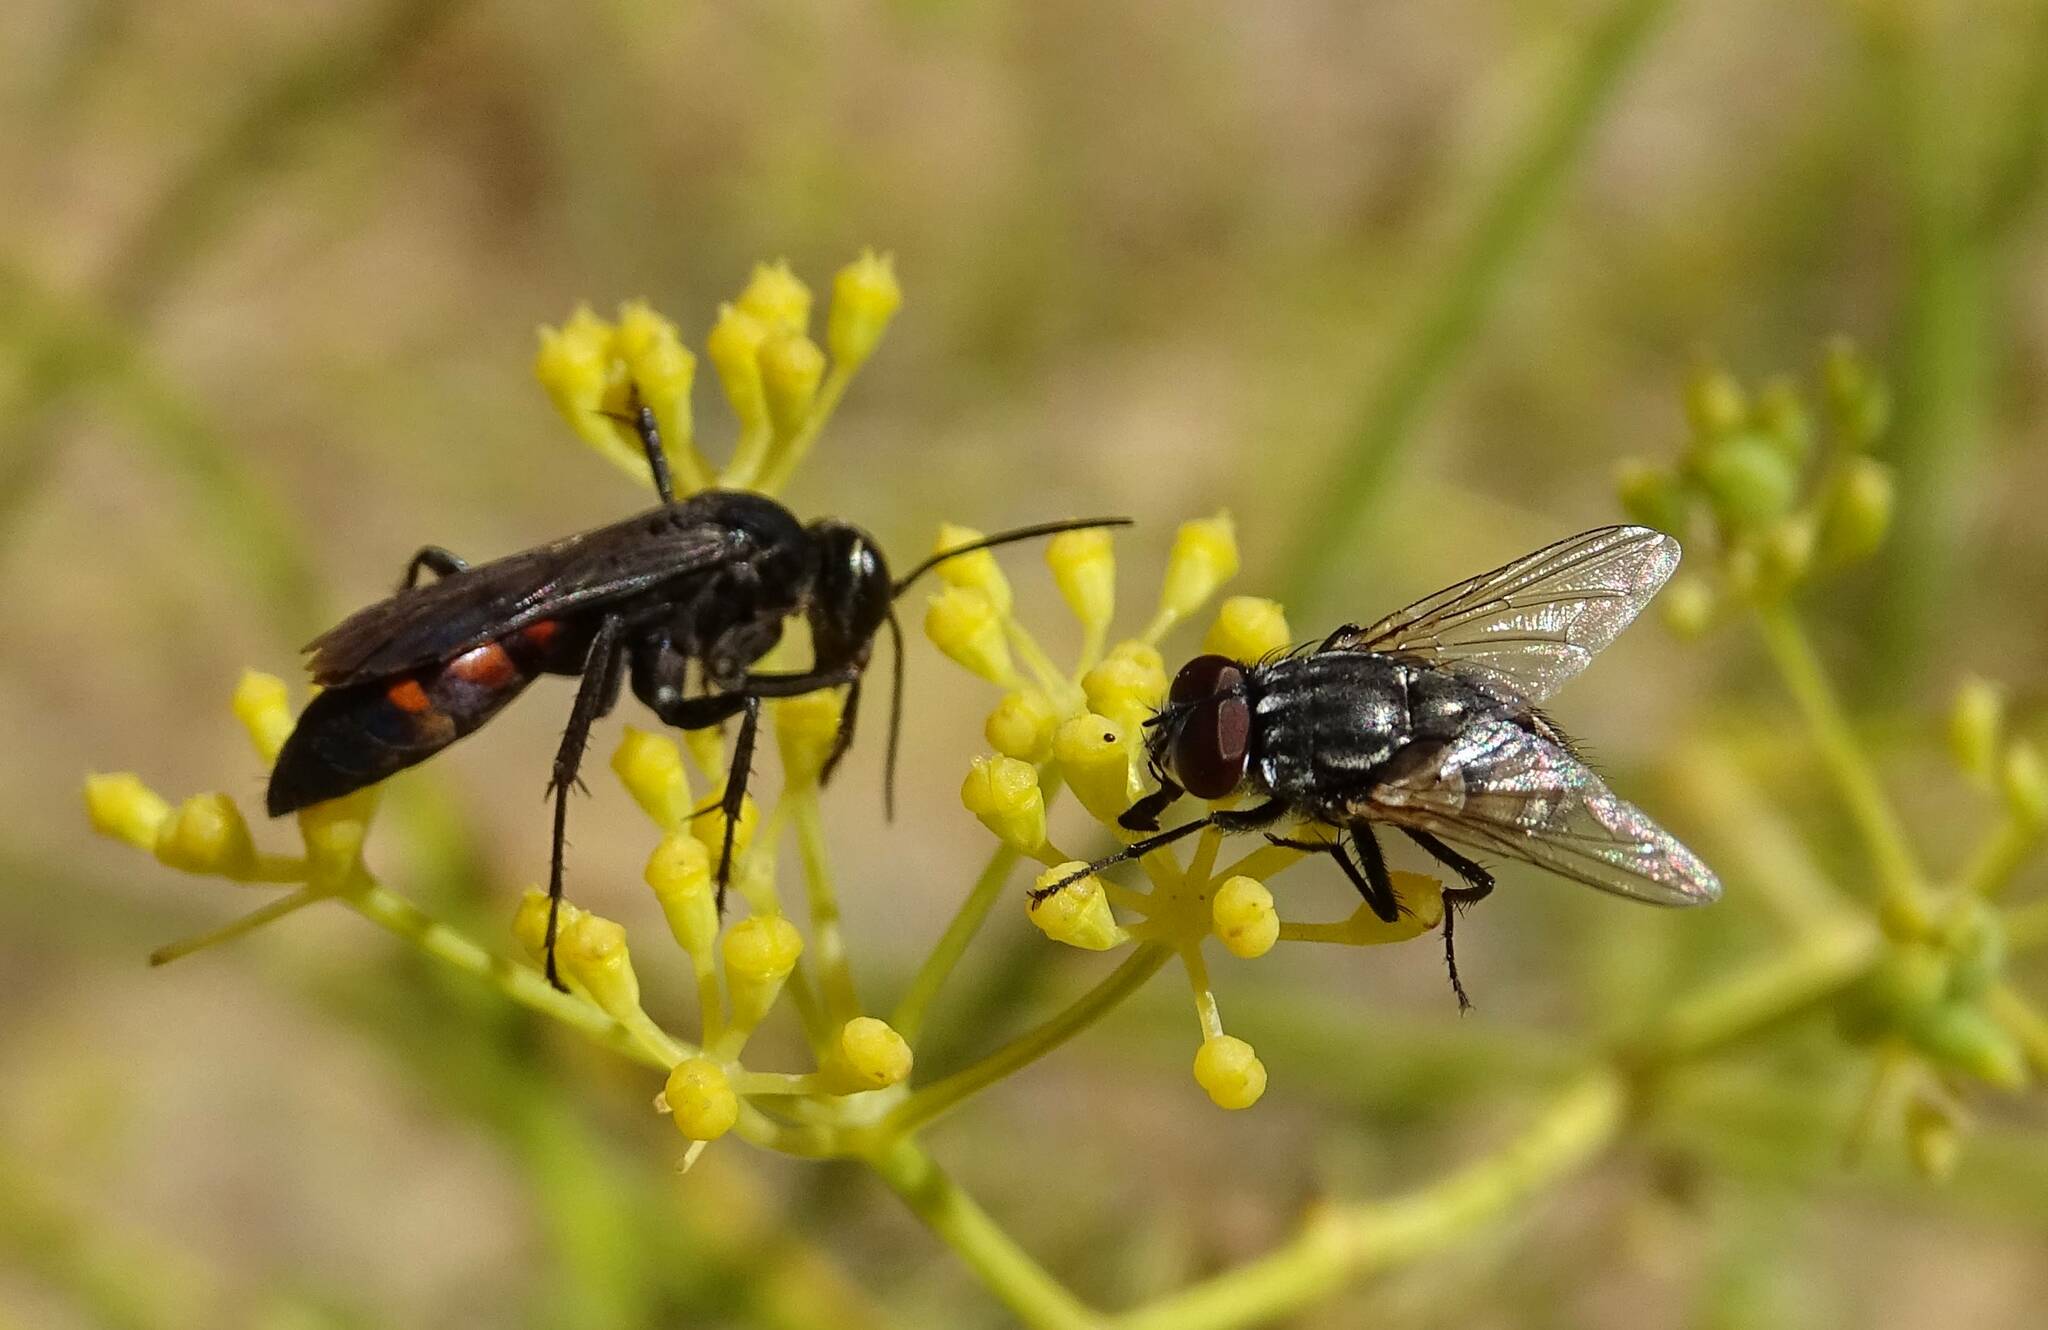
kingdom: Animalia
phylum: Arthropoda
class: Insecta
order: Hymenoptera
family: Pompilidae
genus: Anoplius
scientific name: Anoplius viaticus
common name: Black banded spider wasp
